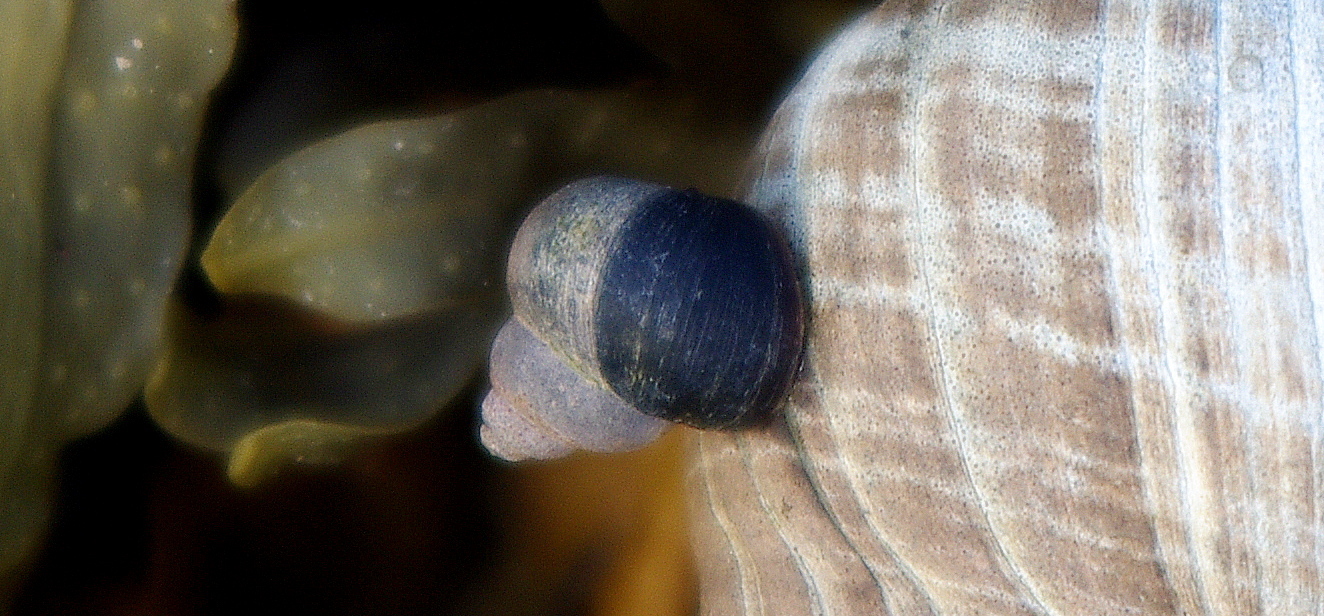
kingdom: Animalia
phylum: Mollusca
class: Gastropoda
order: Littorinimorpha
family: Littorinidae
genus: Littorina
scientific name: Littorina saxatilis
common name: Black-lined periwinkle
